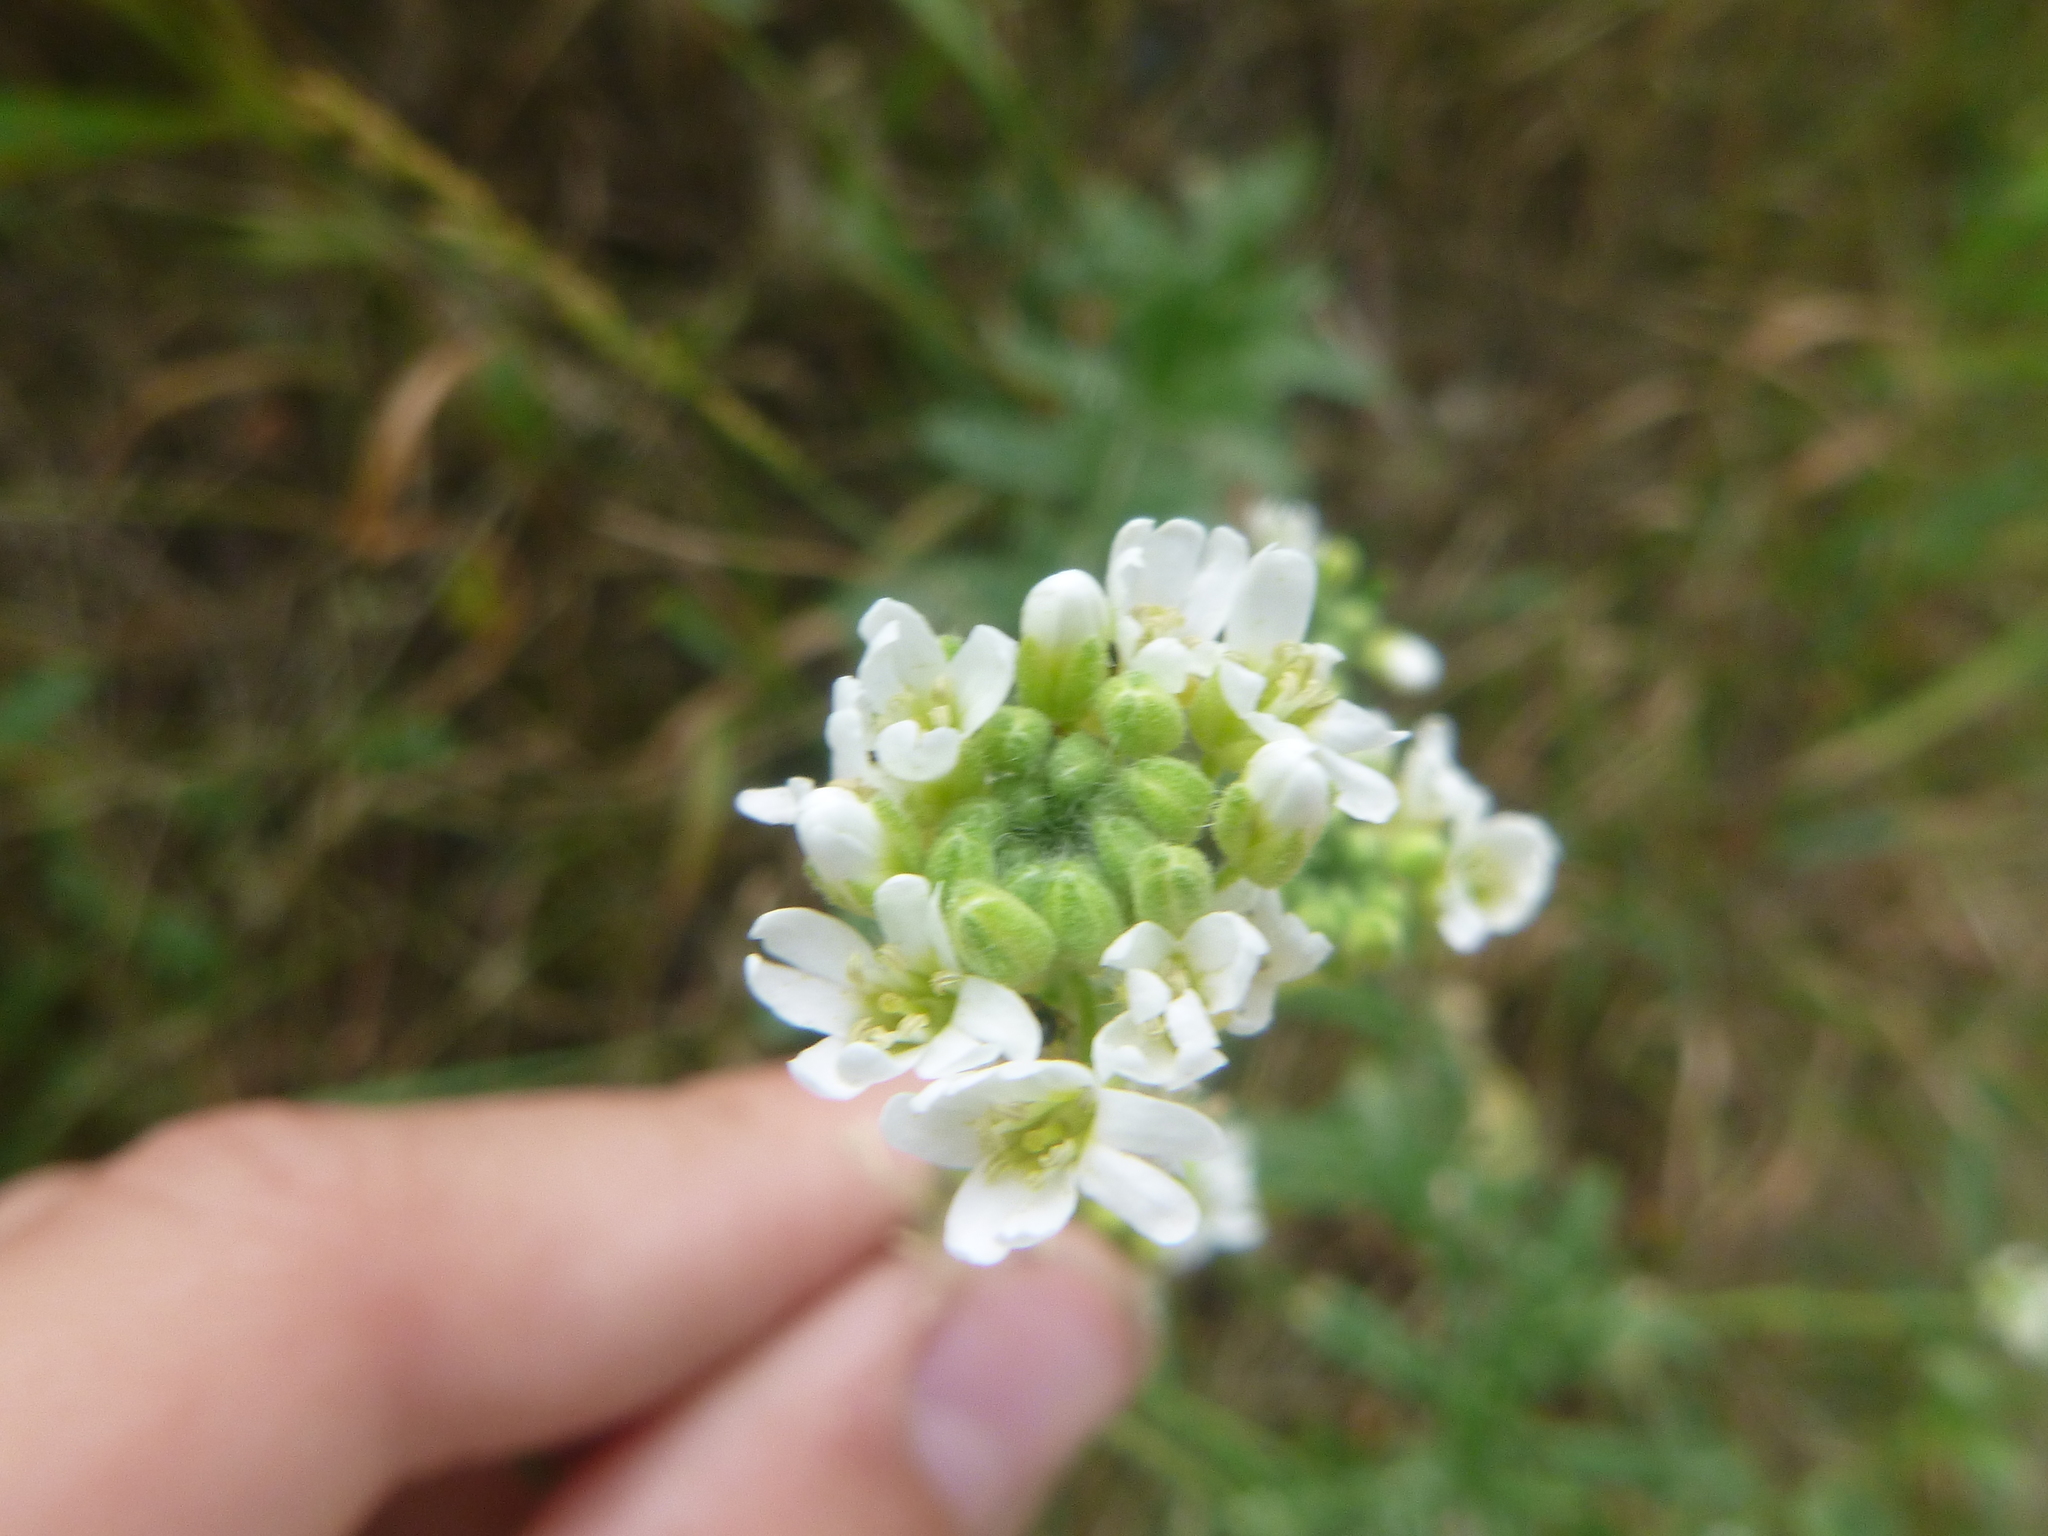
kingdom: Plantae
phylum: Tracheophyta
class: Magnoliopsida
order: Brassicales
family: Brassicaceae
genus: Berteroa
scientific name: Berteroa incana
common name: Hoary alison
